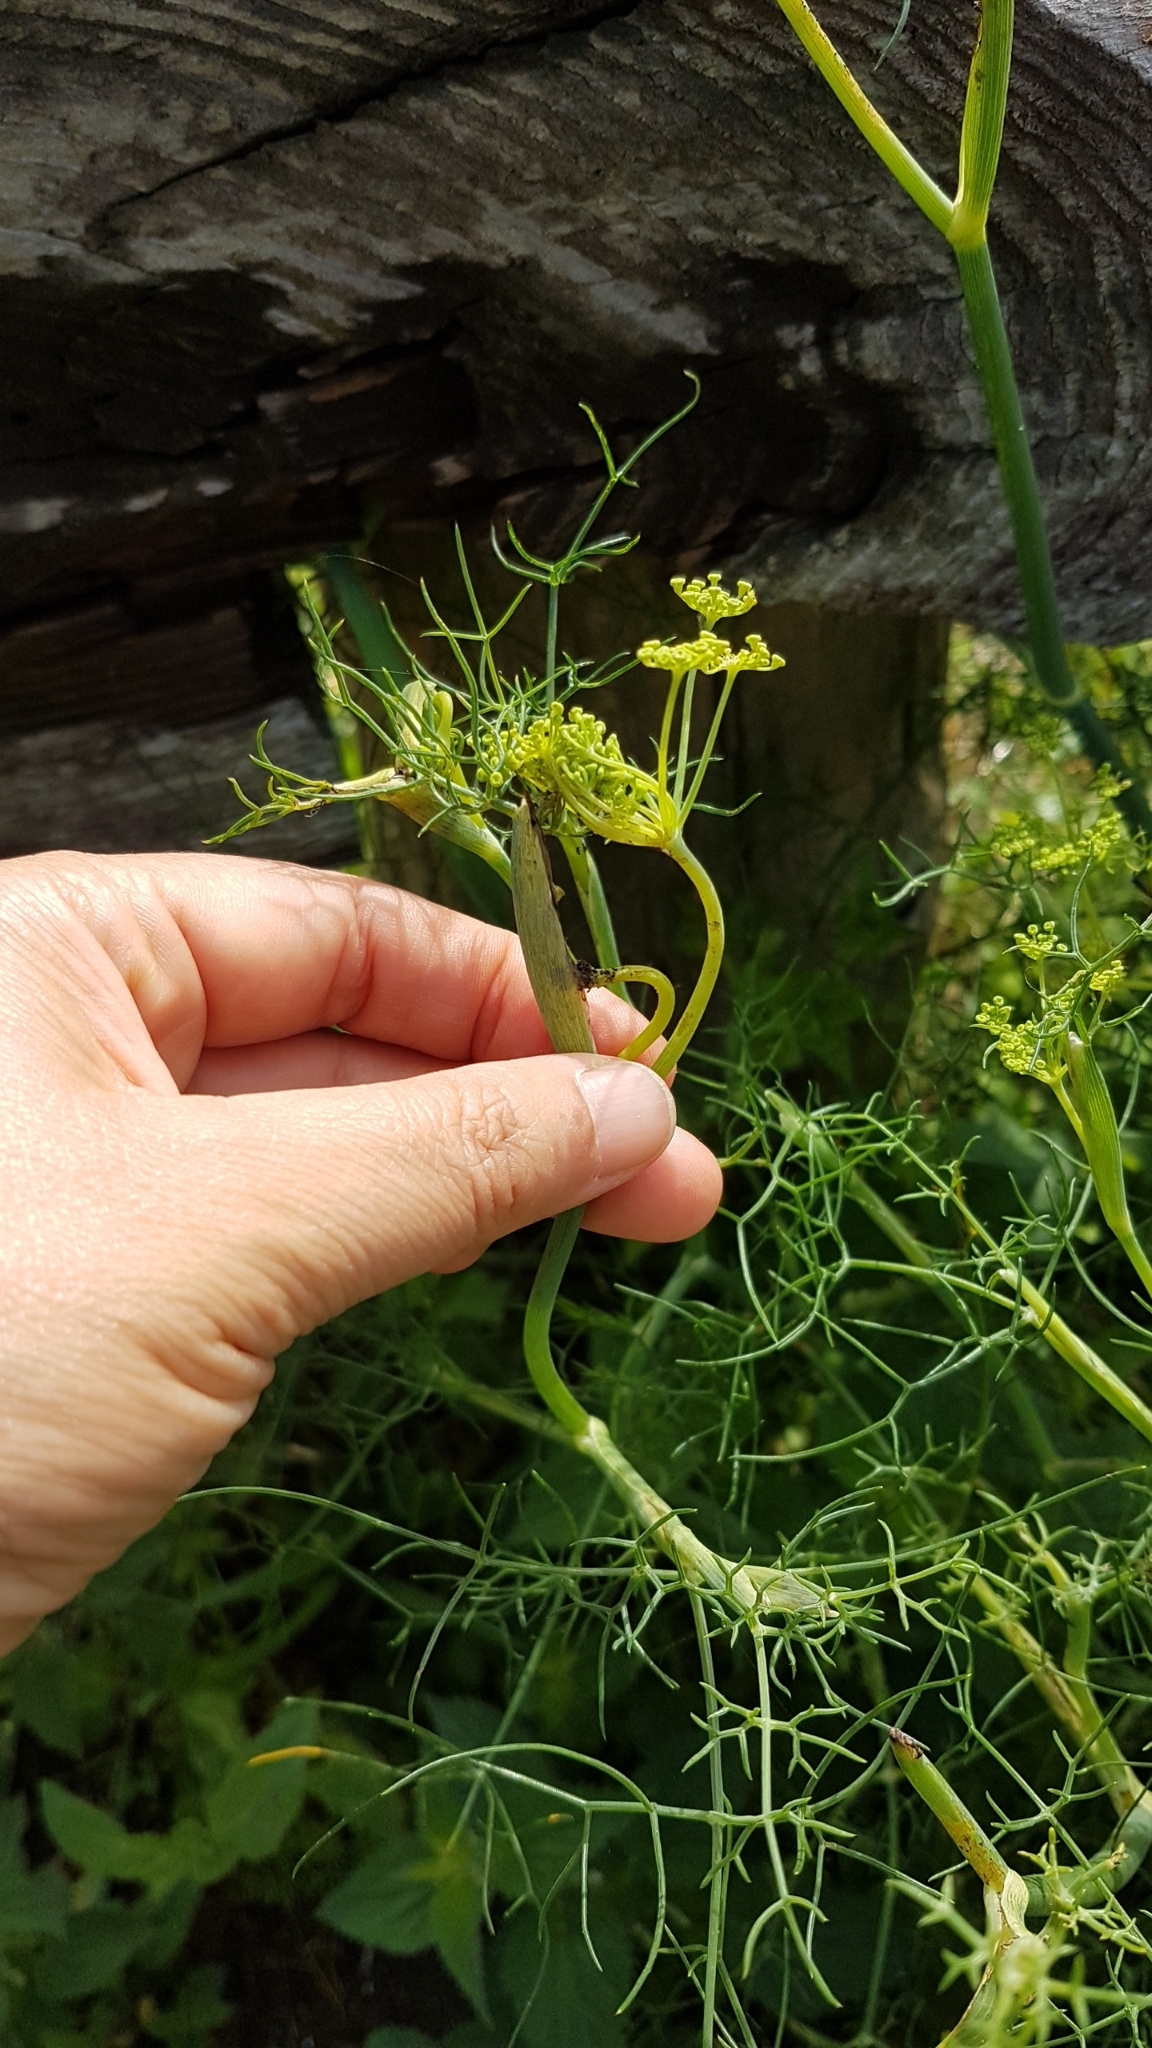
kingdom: Plantae
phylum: Tracheophyta
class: Magnoliopsida
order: Apiales
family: Apiaceae
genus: Foeniculum
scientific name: Foeniculum vulgare
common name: Fennel
